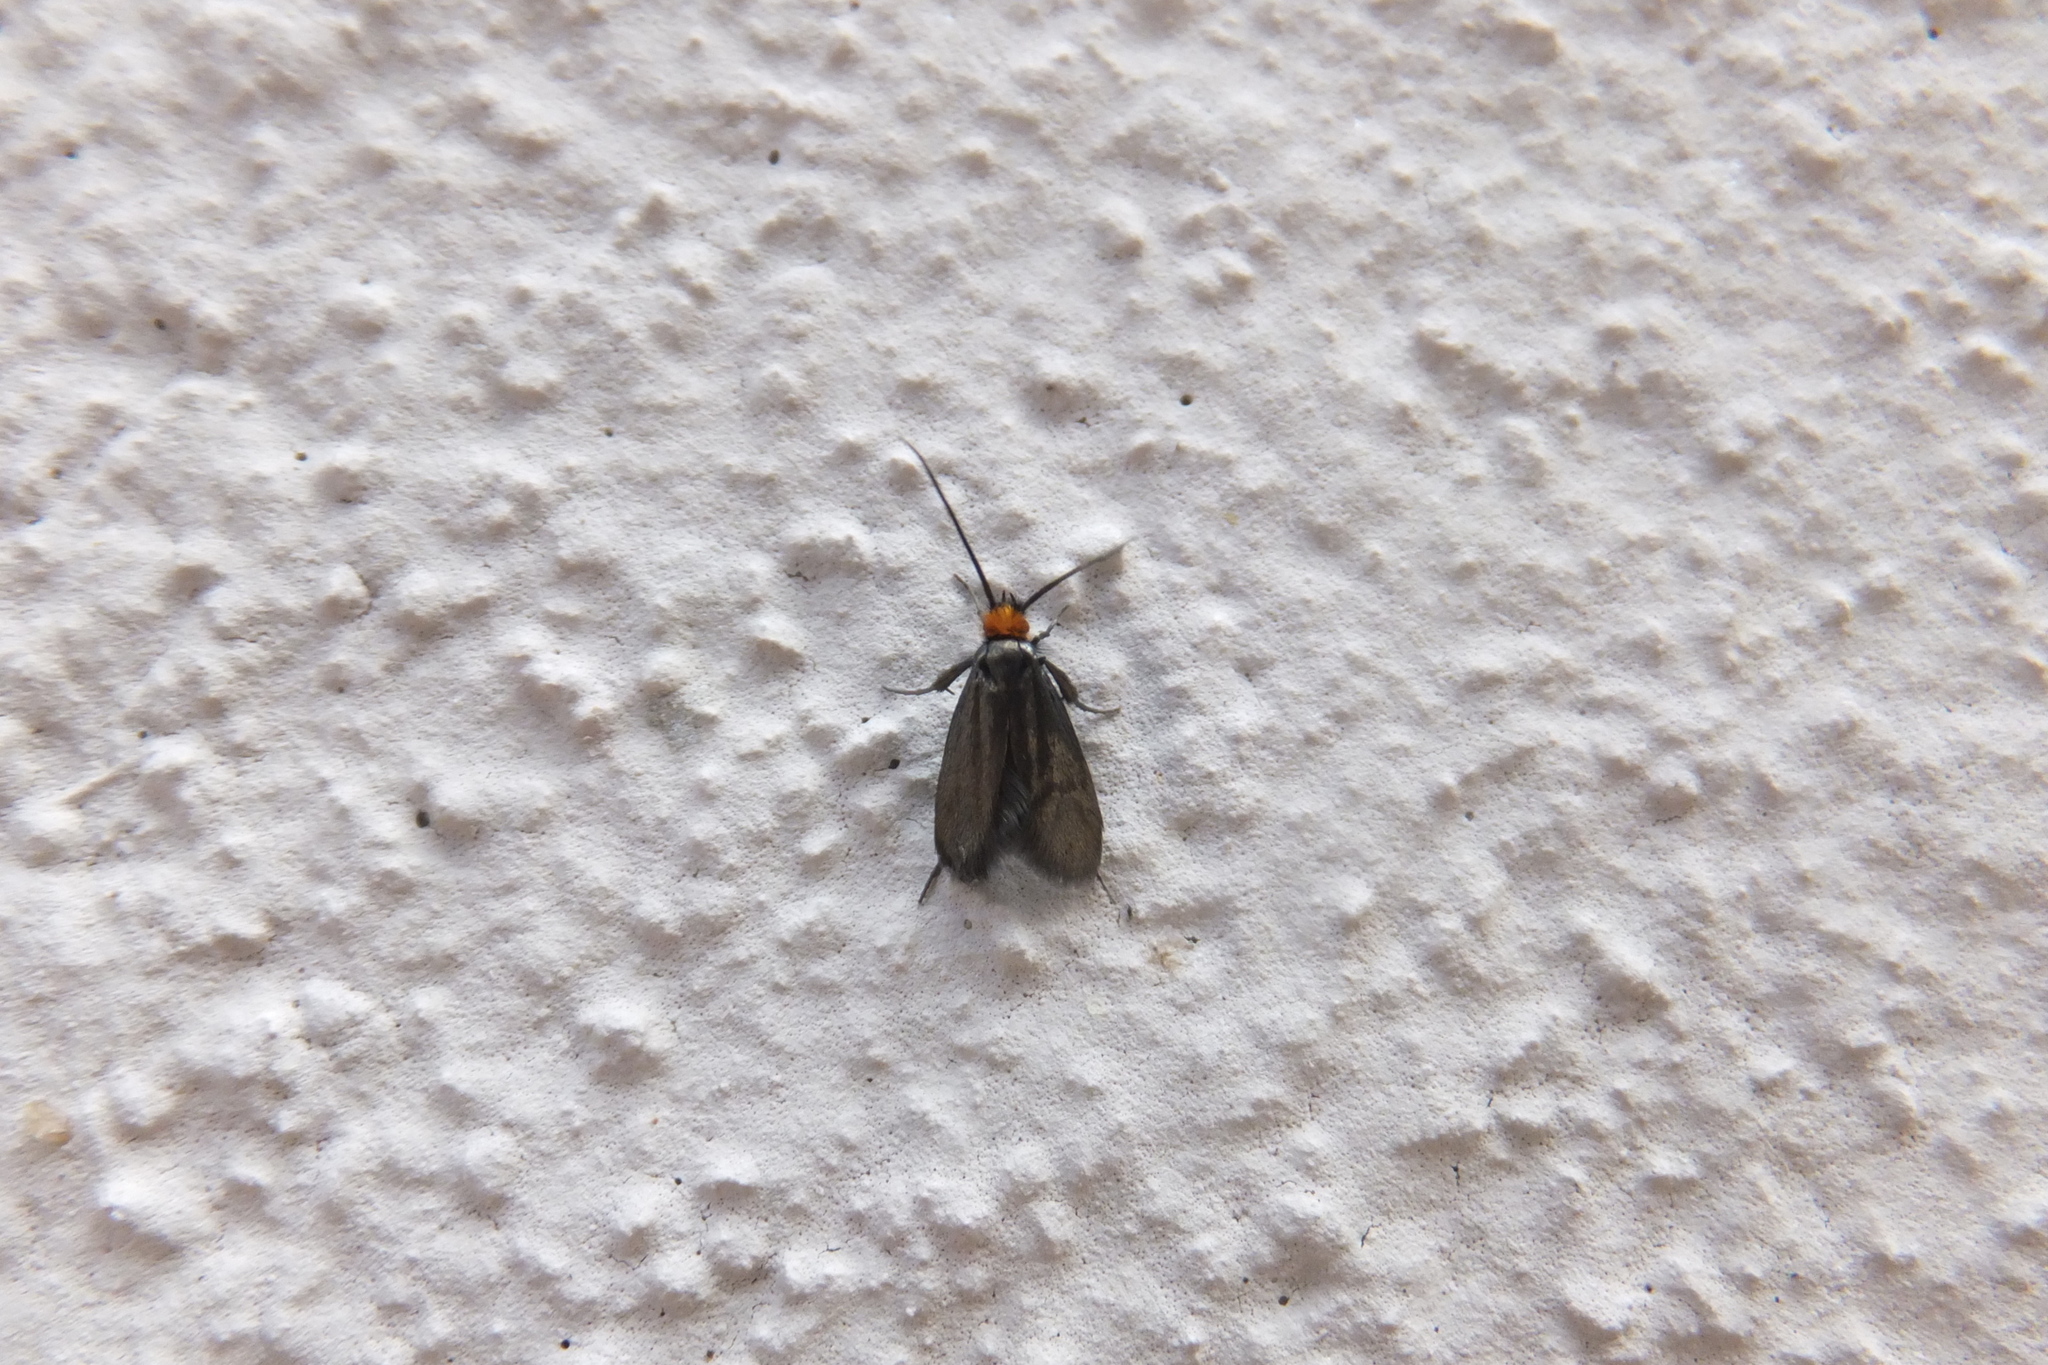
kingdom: Animalia
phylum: Arthropoda
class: Insecta
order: Lepidoptera
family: Adelidae
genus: Cauchas
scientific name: Cauchas rufifrontella
